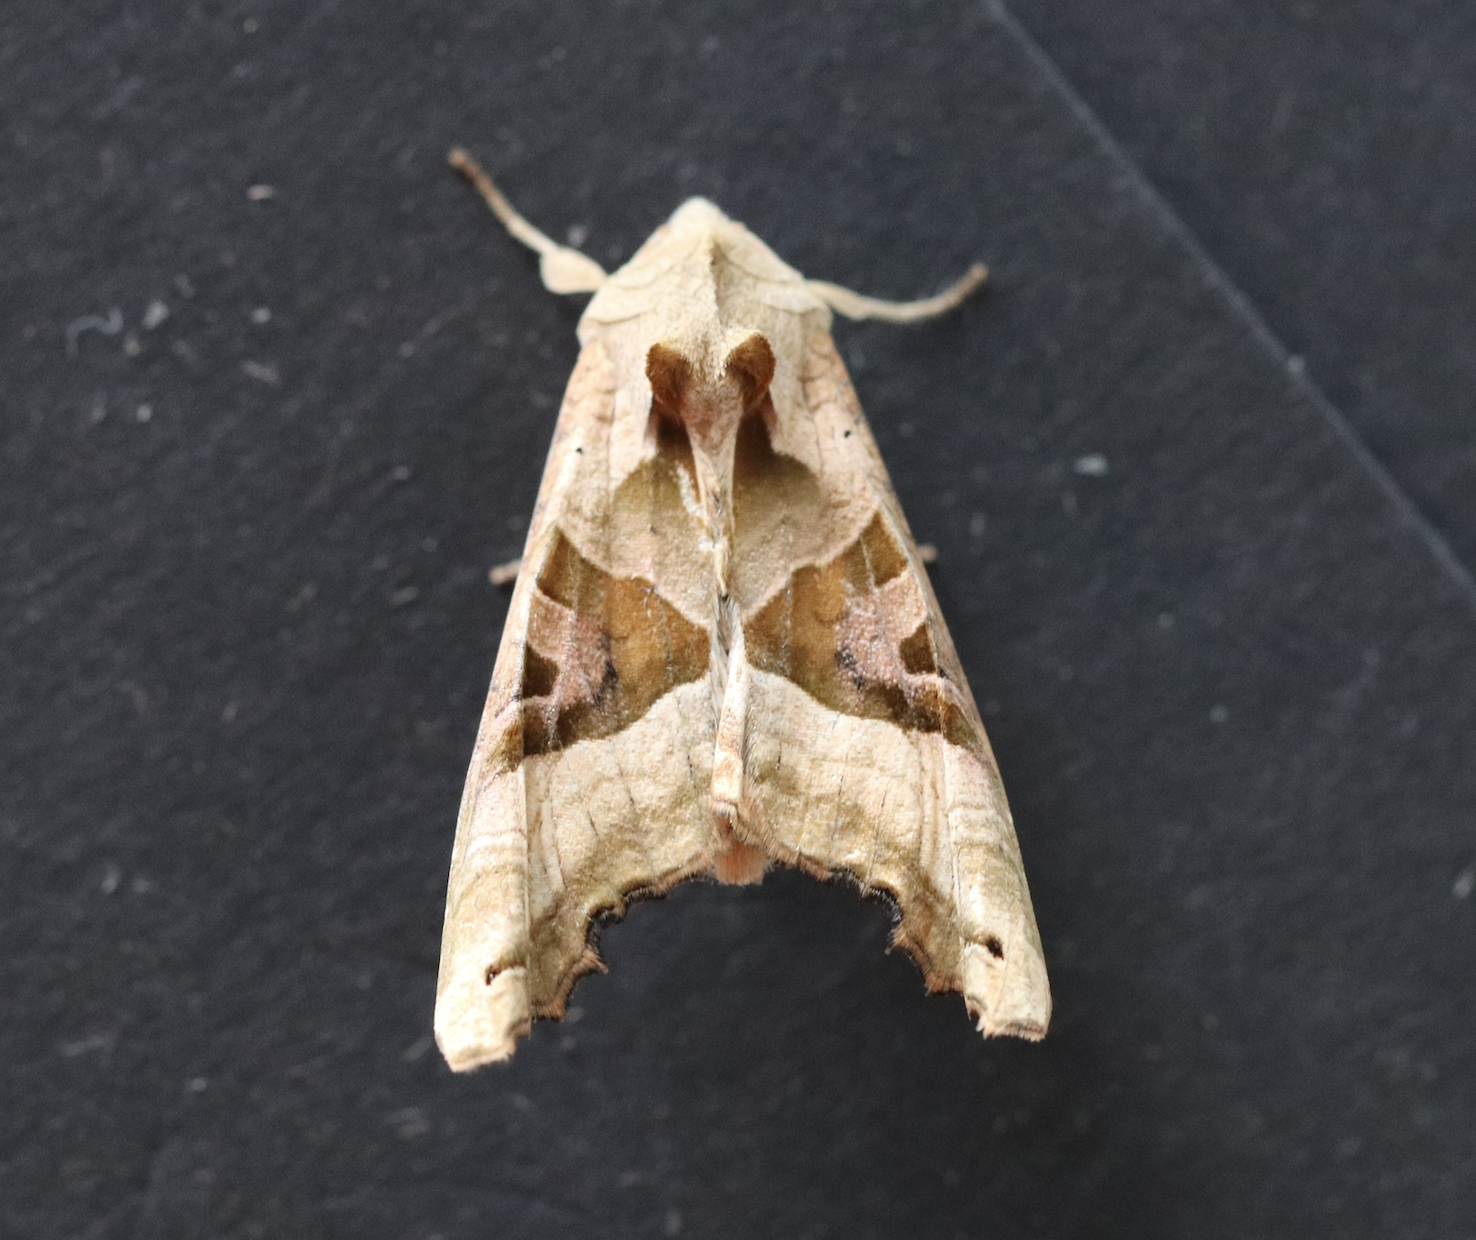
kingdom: Animalia
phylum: Arthropoda
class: Insecta
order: Lepidoptera
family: Noctuidae
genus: Phlogophora
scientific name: Phlogophora meticulosa
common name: Angle shades
